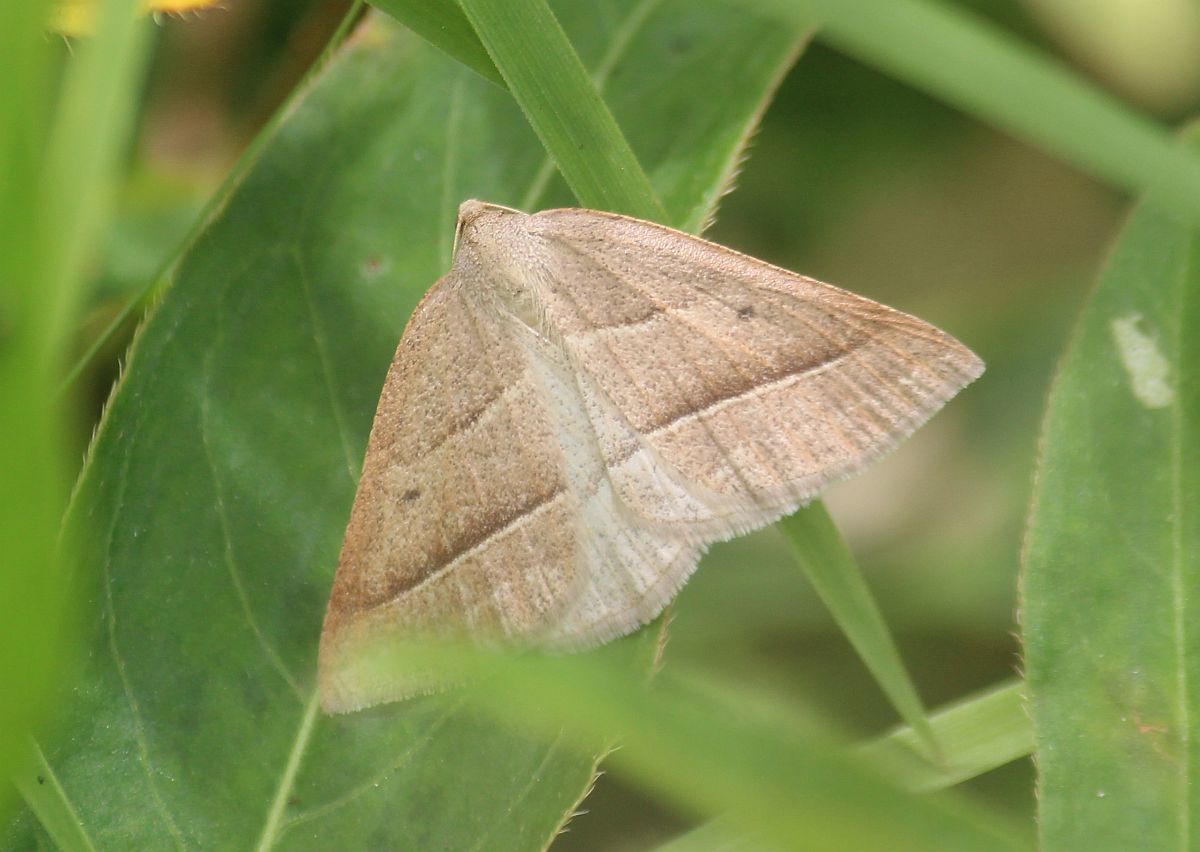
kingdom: Animalia
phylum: Arthropoda
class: Insecta
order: Lepidoptera
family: Pterophoridae
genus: Pterophorus
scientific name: Pterophorus Petrophora chlorosata
